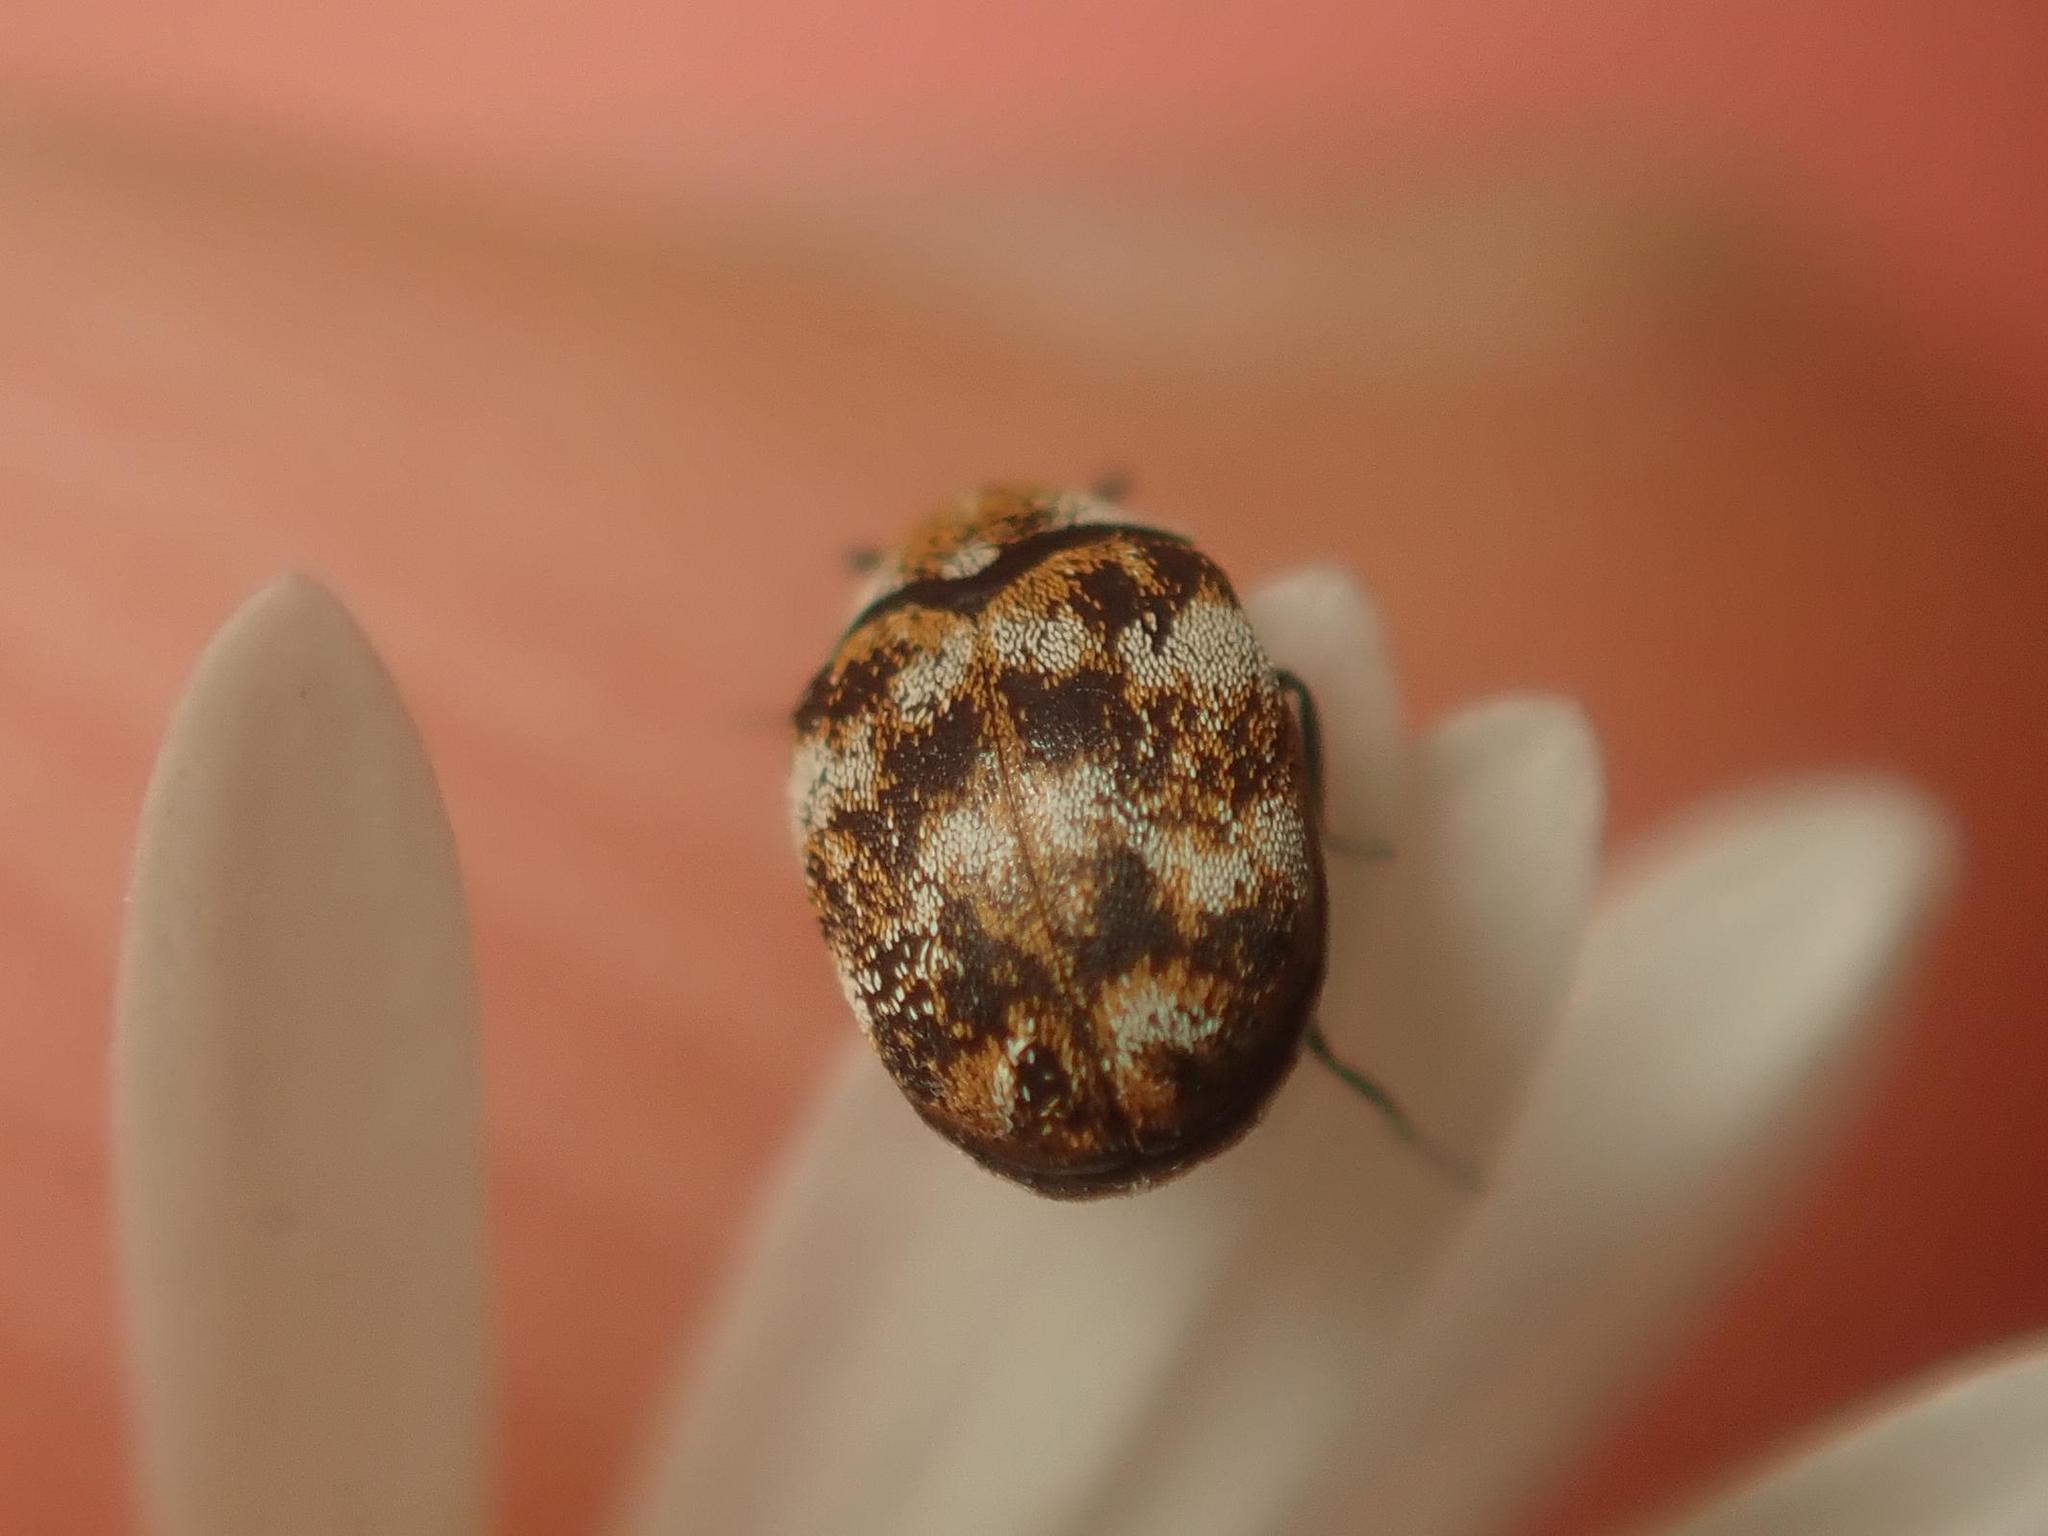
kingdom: Animalia
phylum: Arthropoda
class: Insecta
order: Coleoptera
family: Dermestidae
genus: Anthrenus
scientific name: Anthrenus verbasci
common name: Varied carpet beetle
